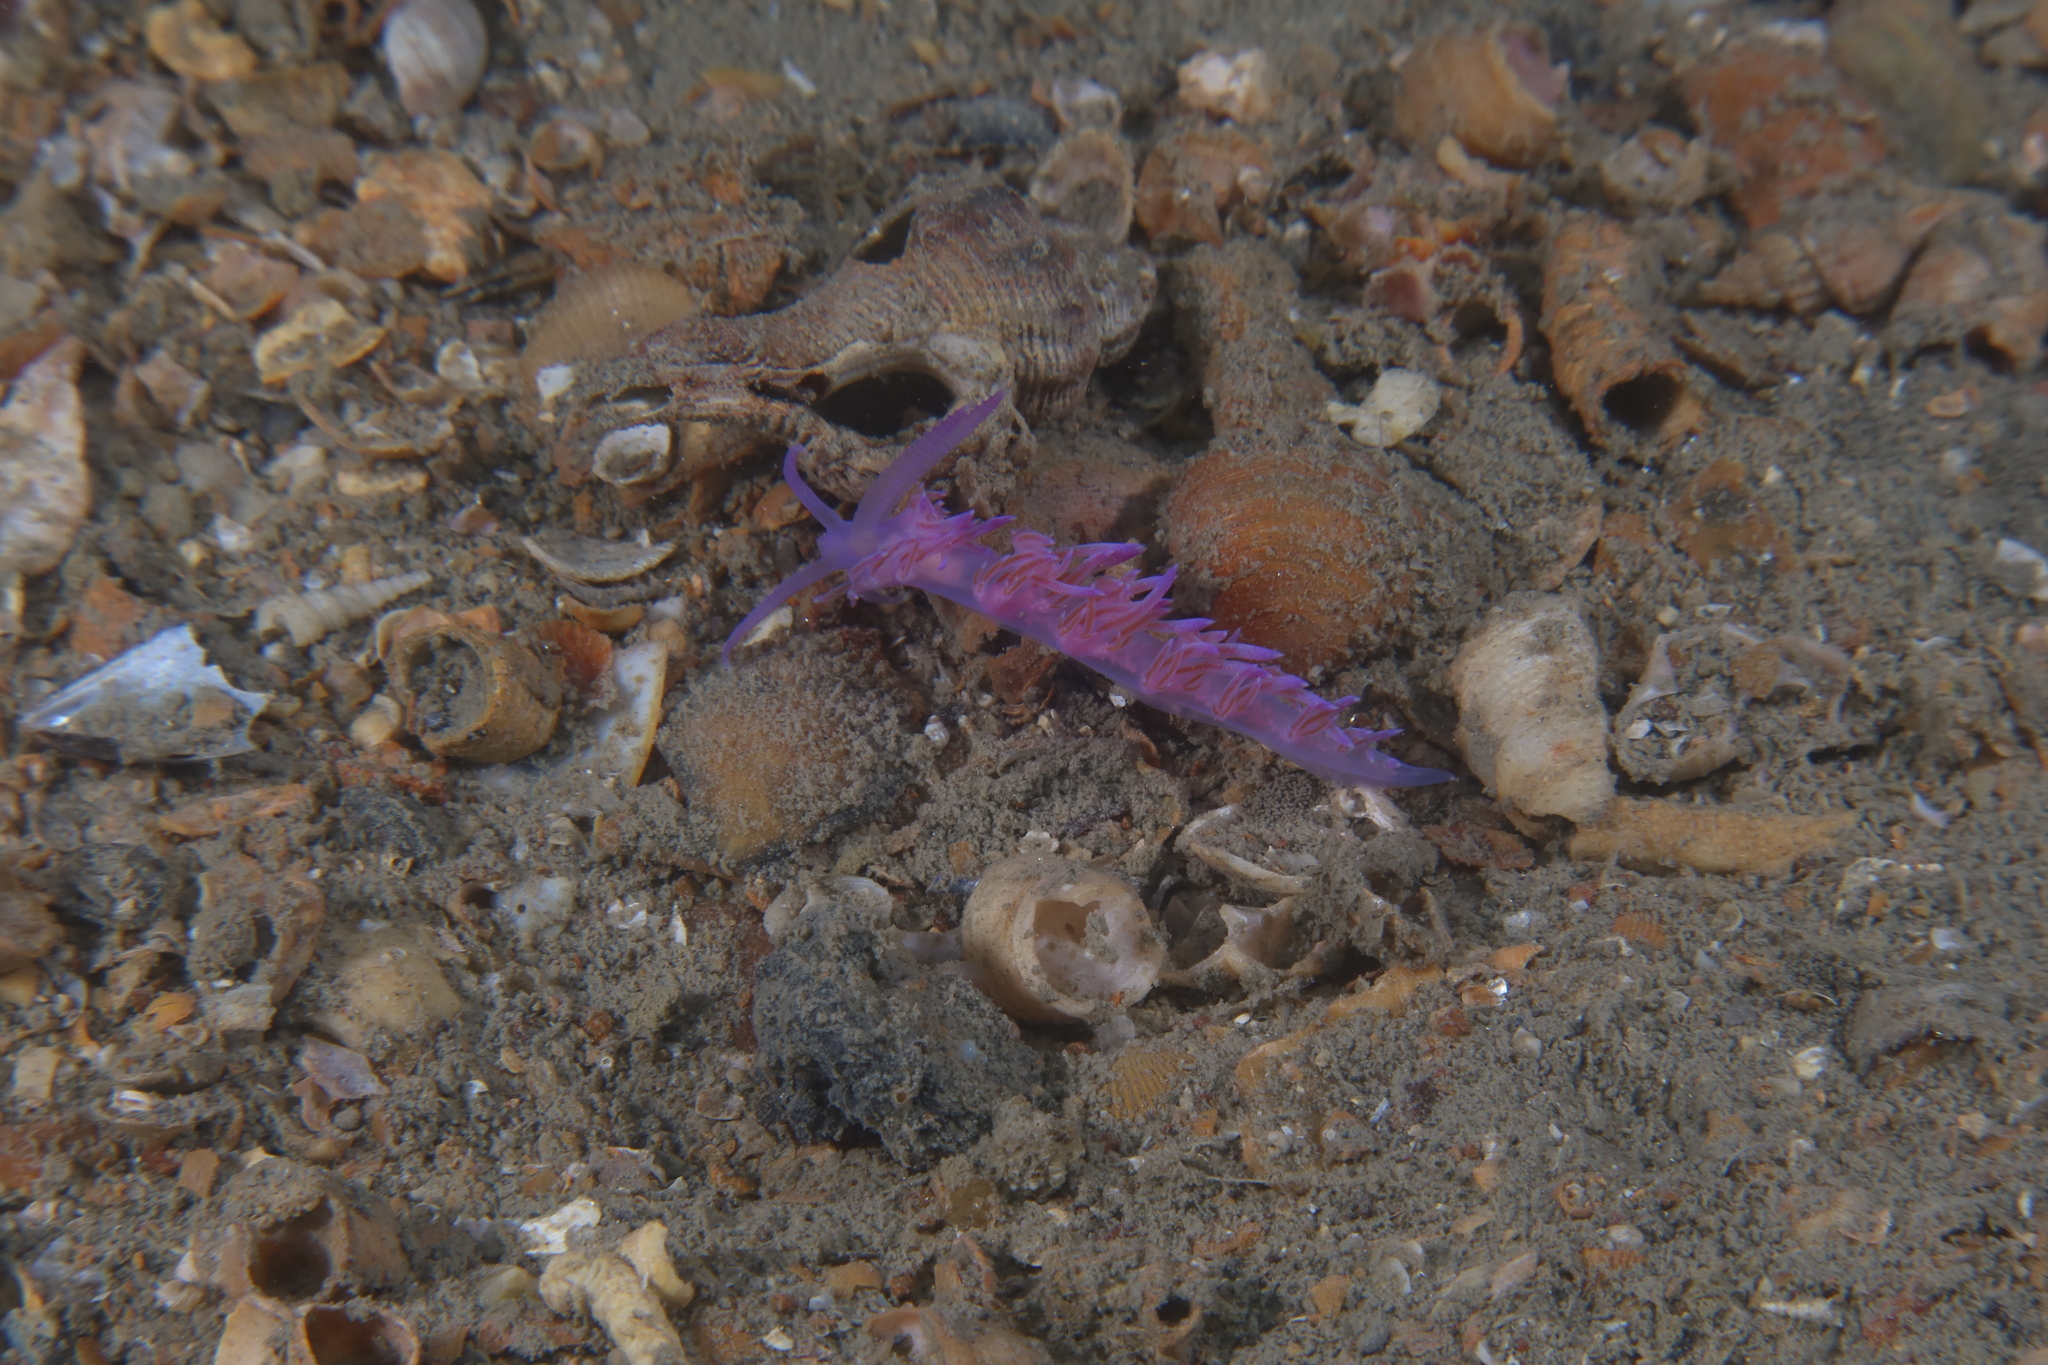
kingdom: Animalia
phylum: Mollusca
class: Gastropoda
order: Nudibranchia
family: Flabellinidae
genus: Flabellina
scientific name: Flabellina affinis
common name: Mediterranean violet aeolid
